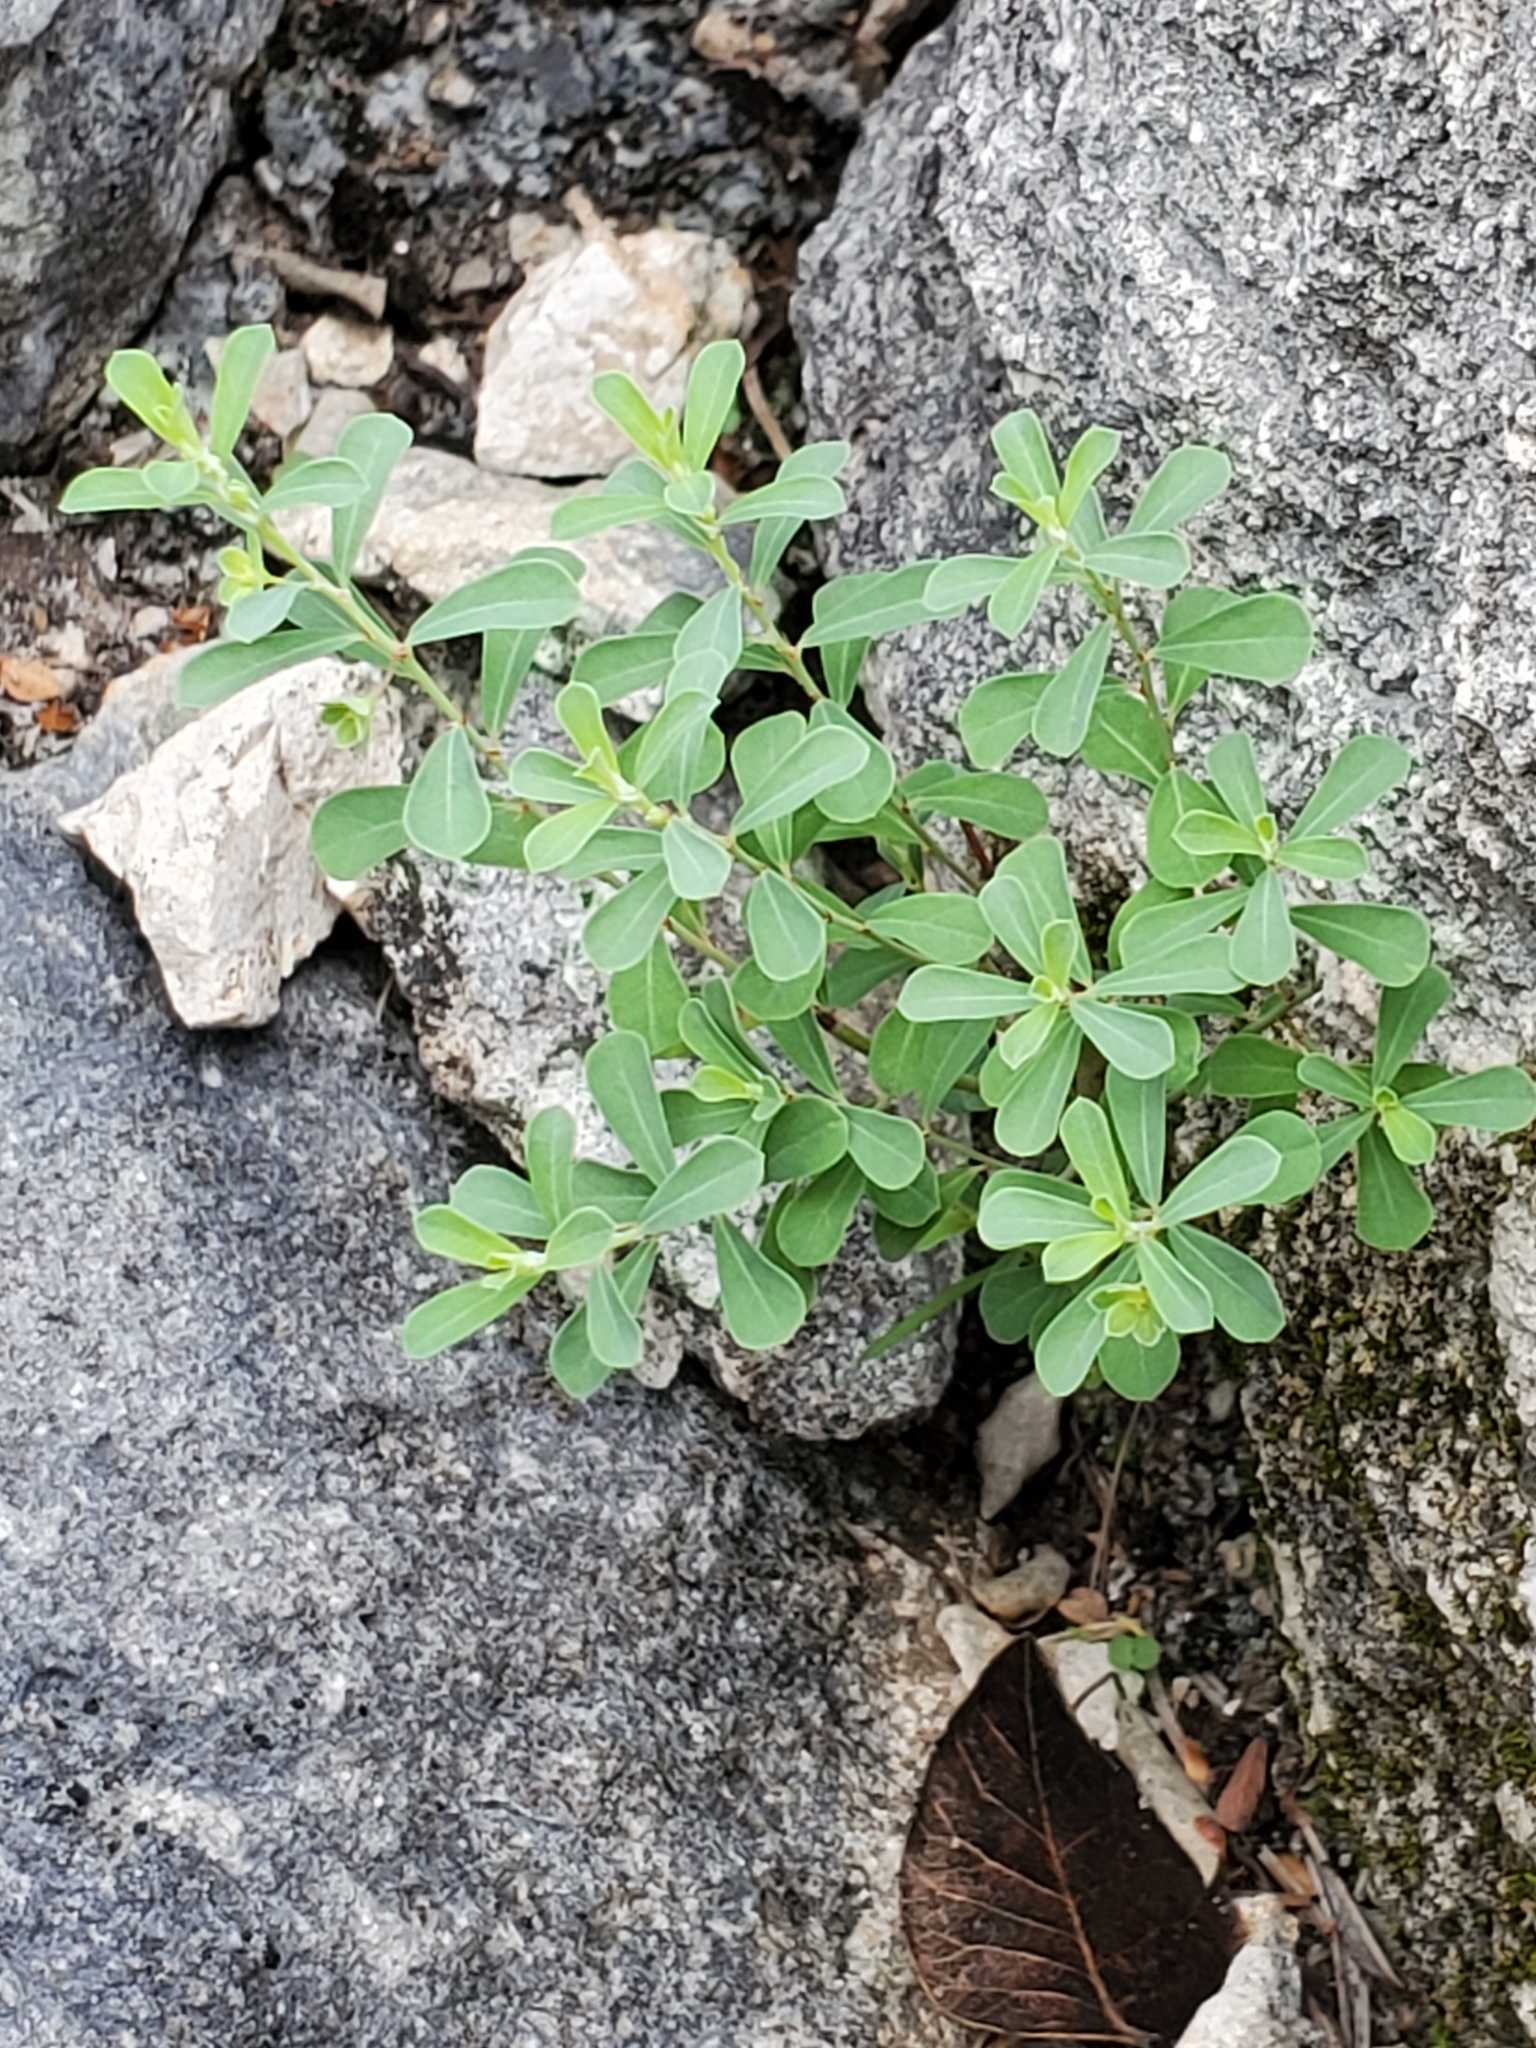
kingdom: Plantae
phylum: Tracheophyta
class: Magnoliopsida
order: Malpighiales
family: Phyllanthaceae
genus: Phyllanthus
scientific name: Phyllanthus polygonoides
